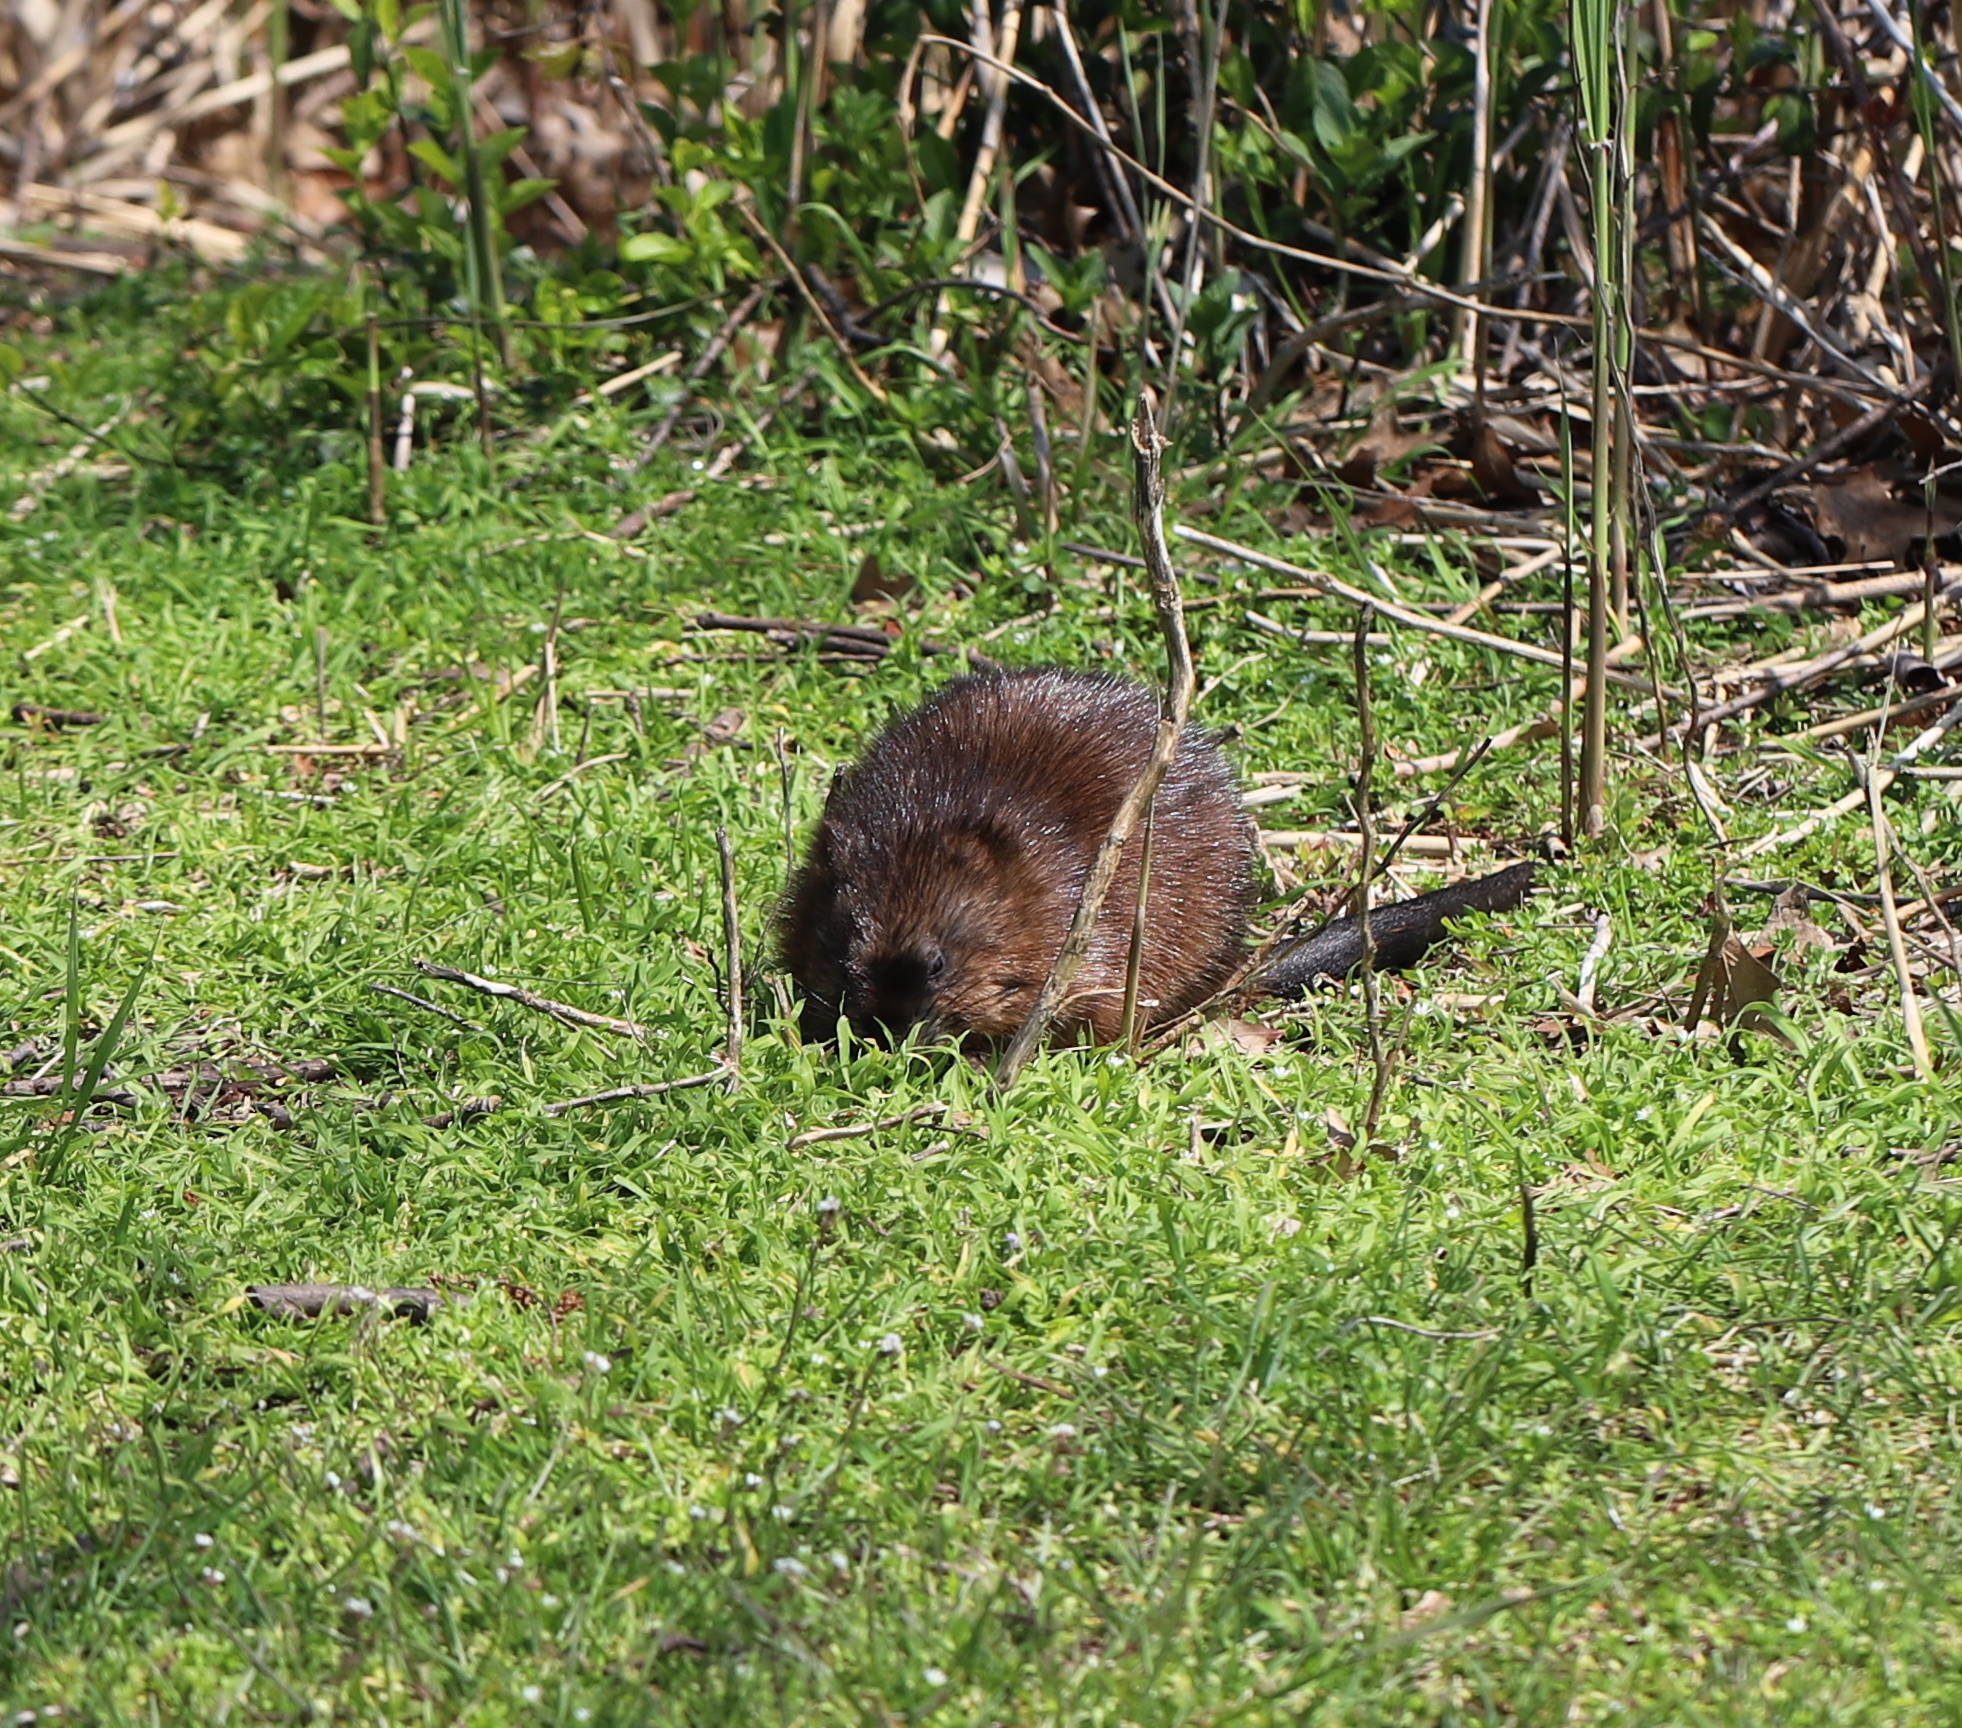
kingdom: Animalia
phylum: Chordata
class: Mammalia
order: Rodentia
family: Cricetidae
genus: Ondatra
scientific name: Ondatra zibethicus
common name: Muskrat
